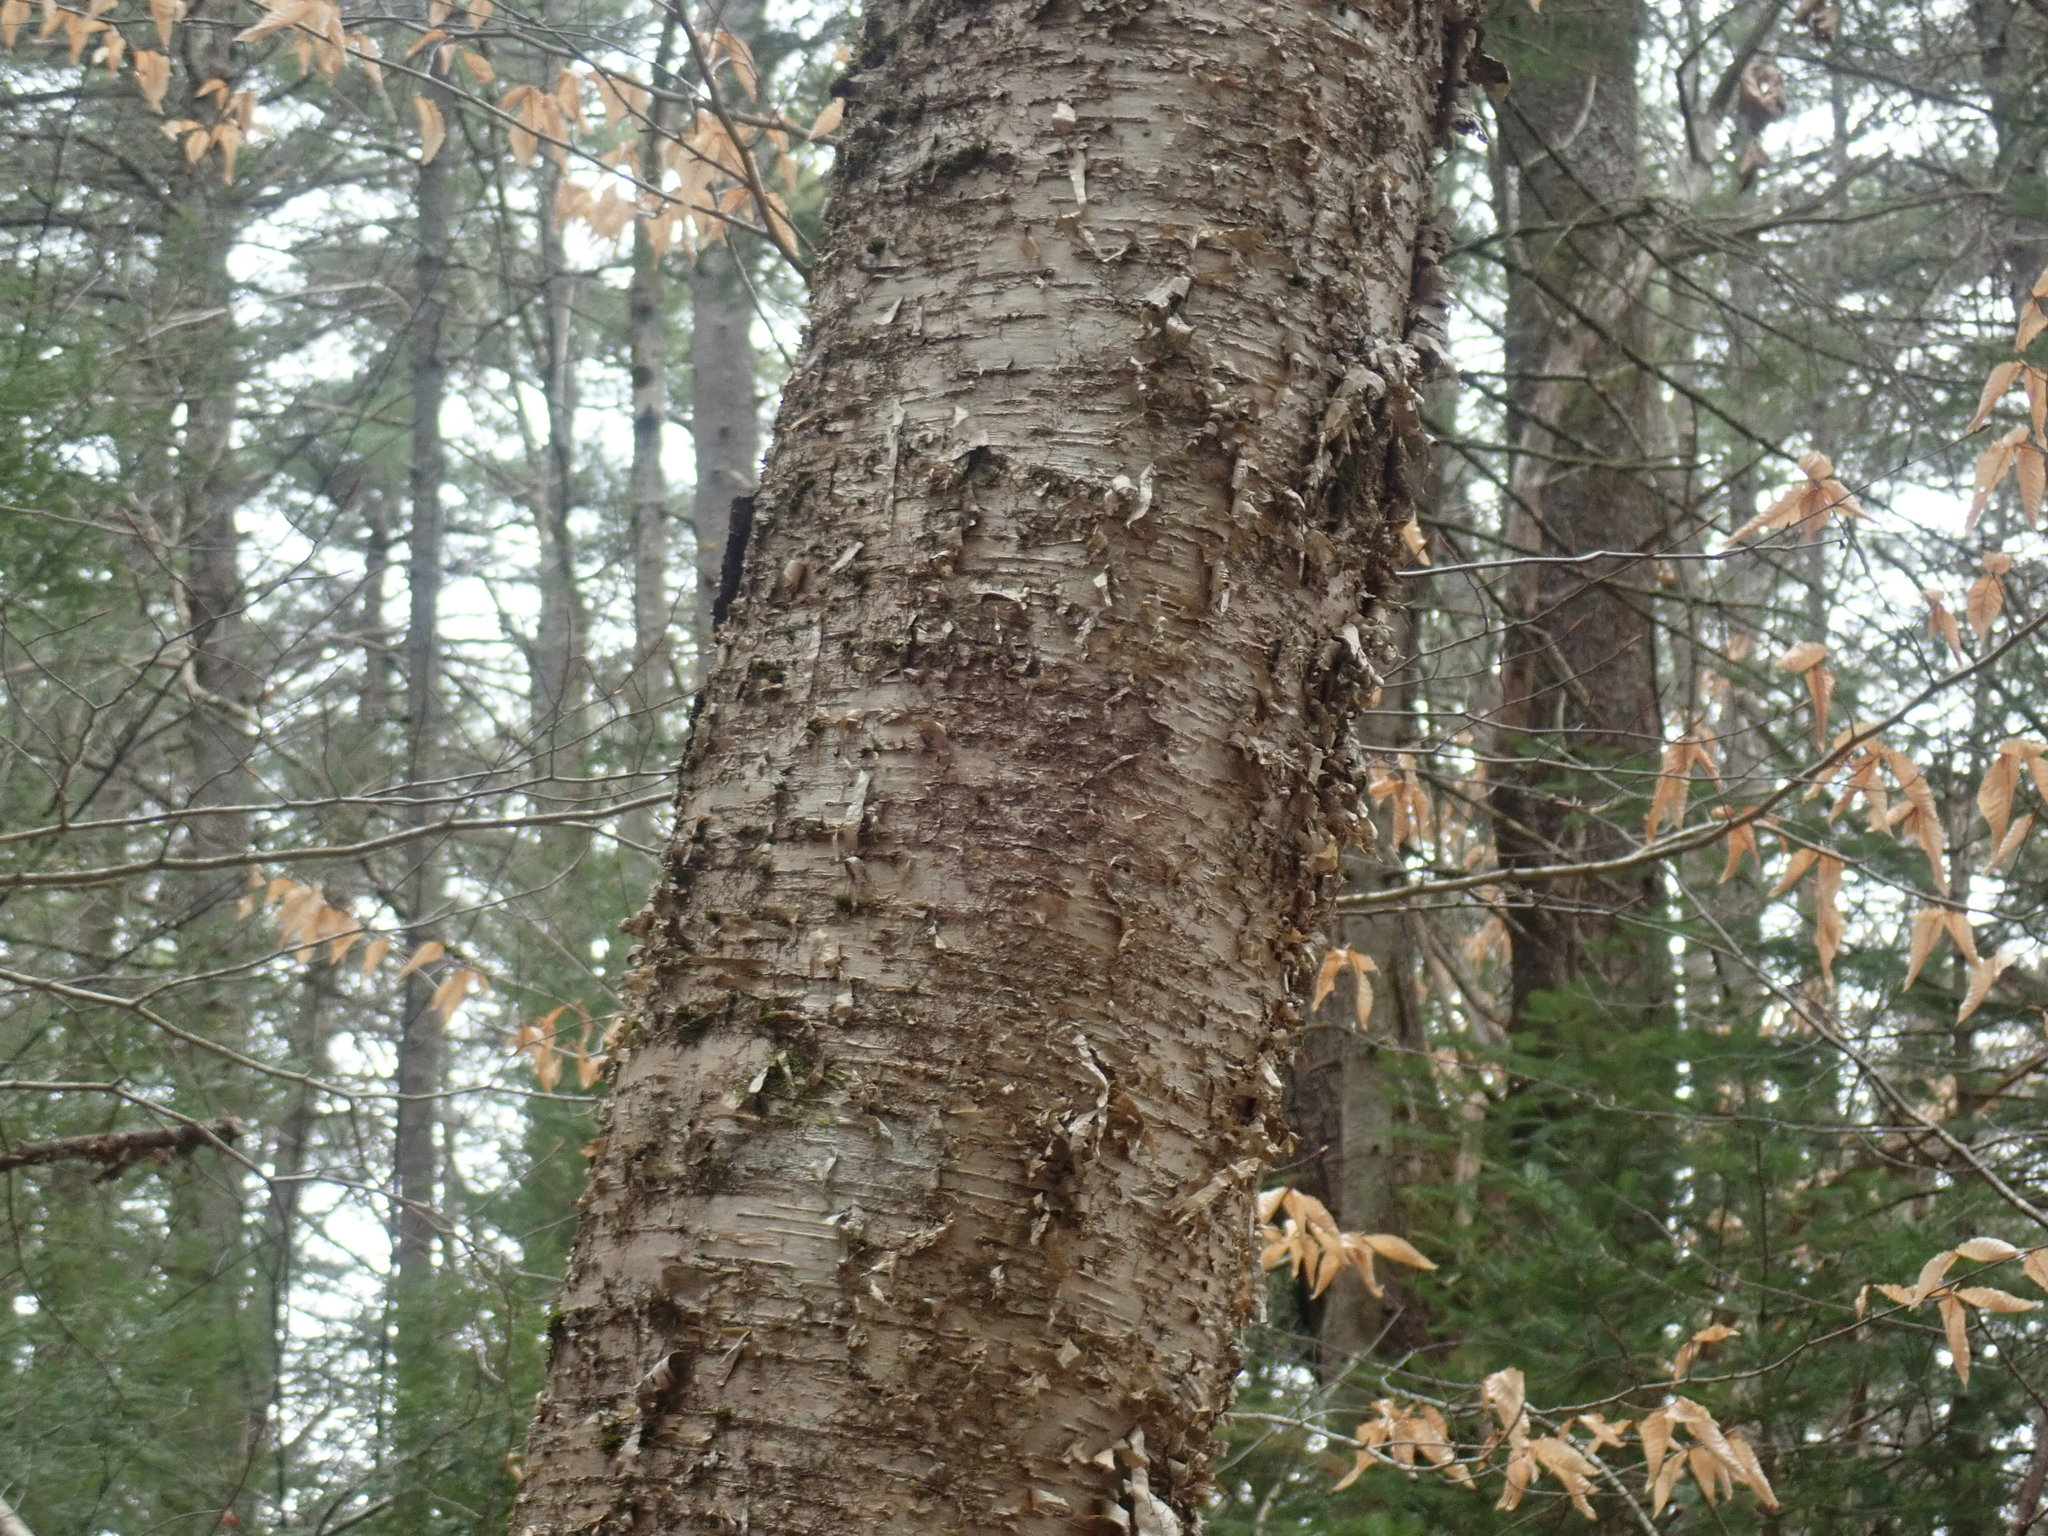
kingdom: Plantae
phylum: Tracheophyta
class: Magnoliopsida
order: Fagales
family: Betulaceae
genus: Betula
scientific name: Betula alleghaniensis
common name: Yellow birch
